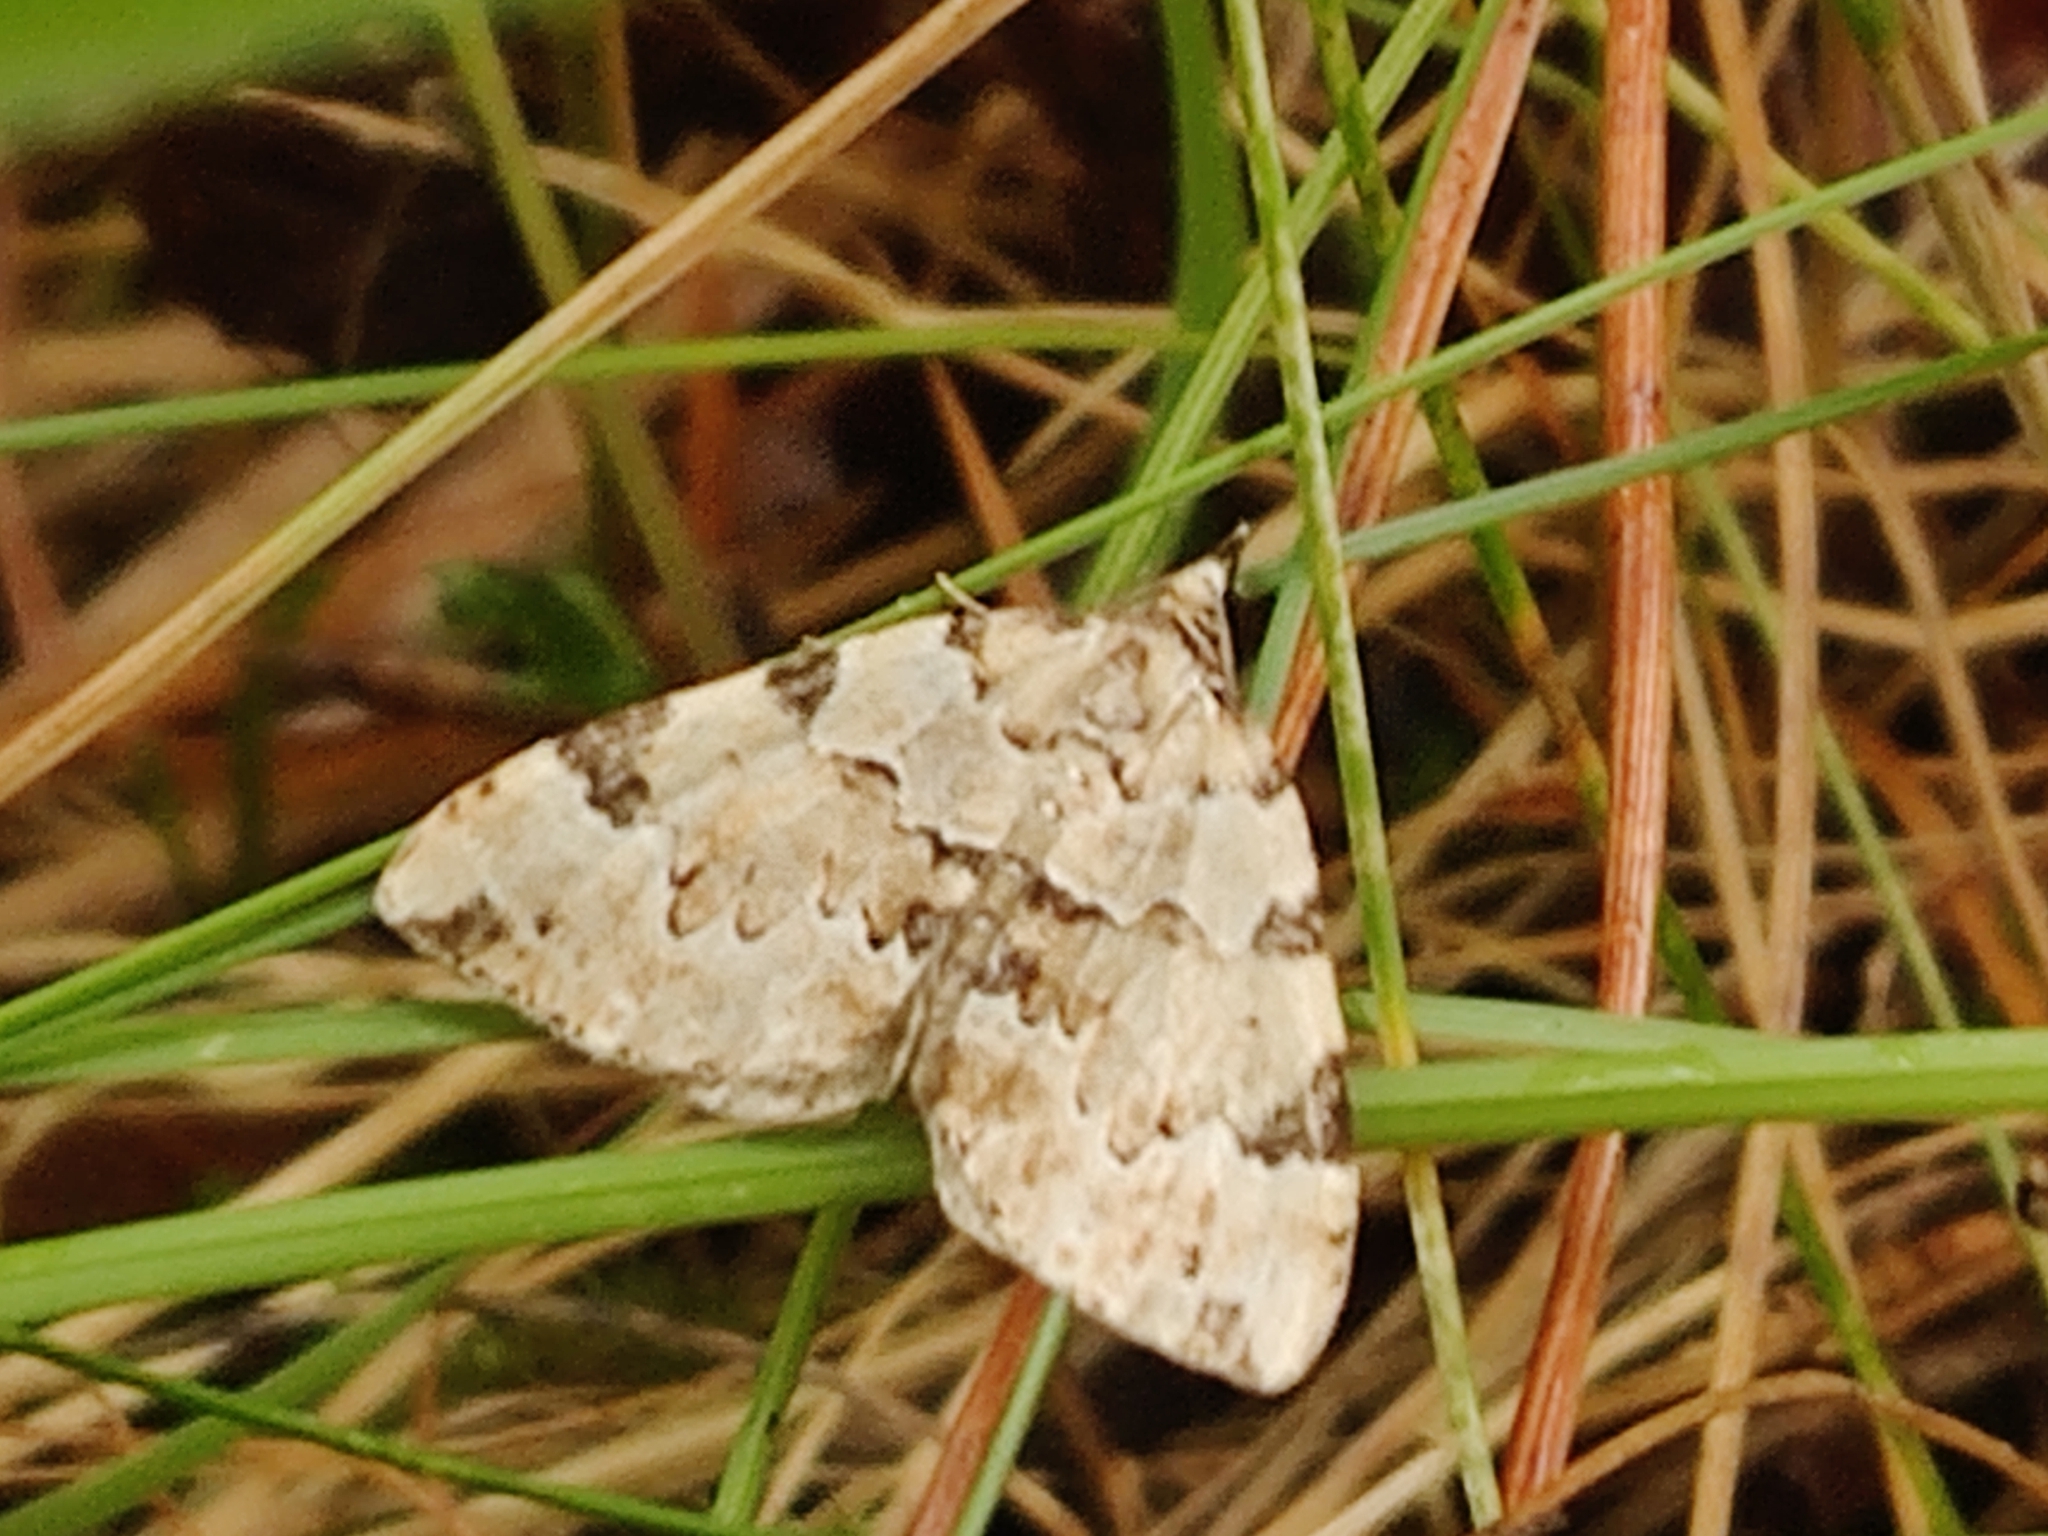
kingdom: Animalia
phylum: Arthropoda
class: Insecta
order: Lepidoptera
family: Geometridae
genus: Colostygia
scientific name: Colostygia pectinataria
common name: Green carpet
